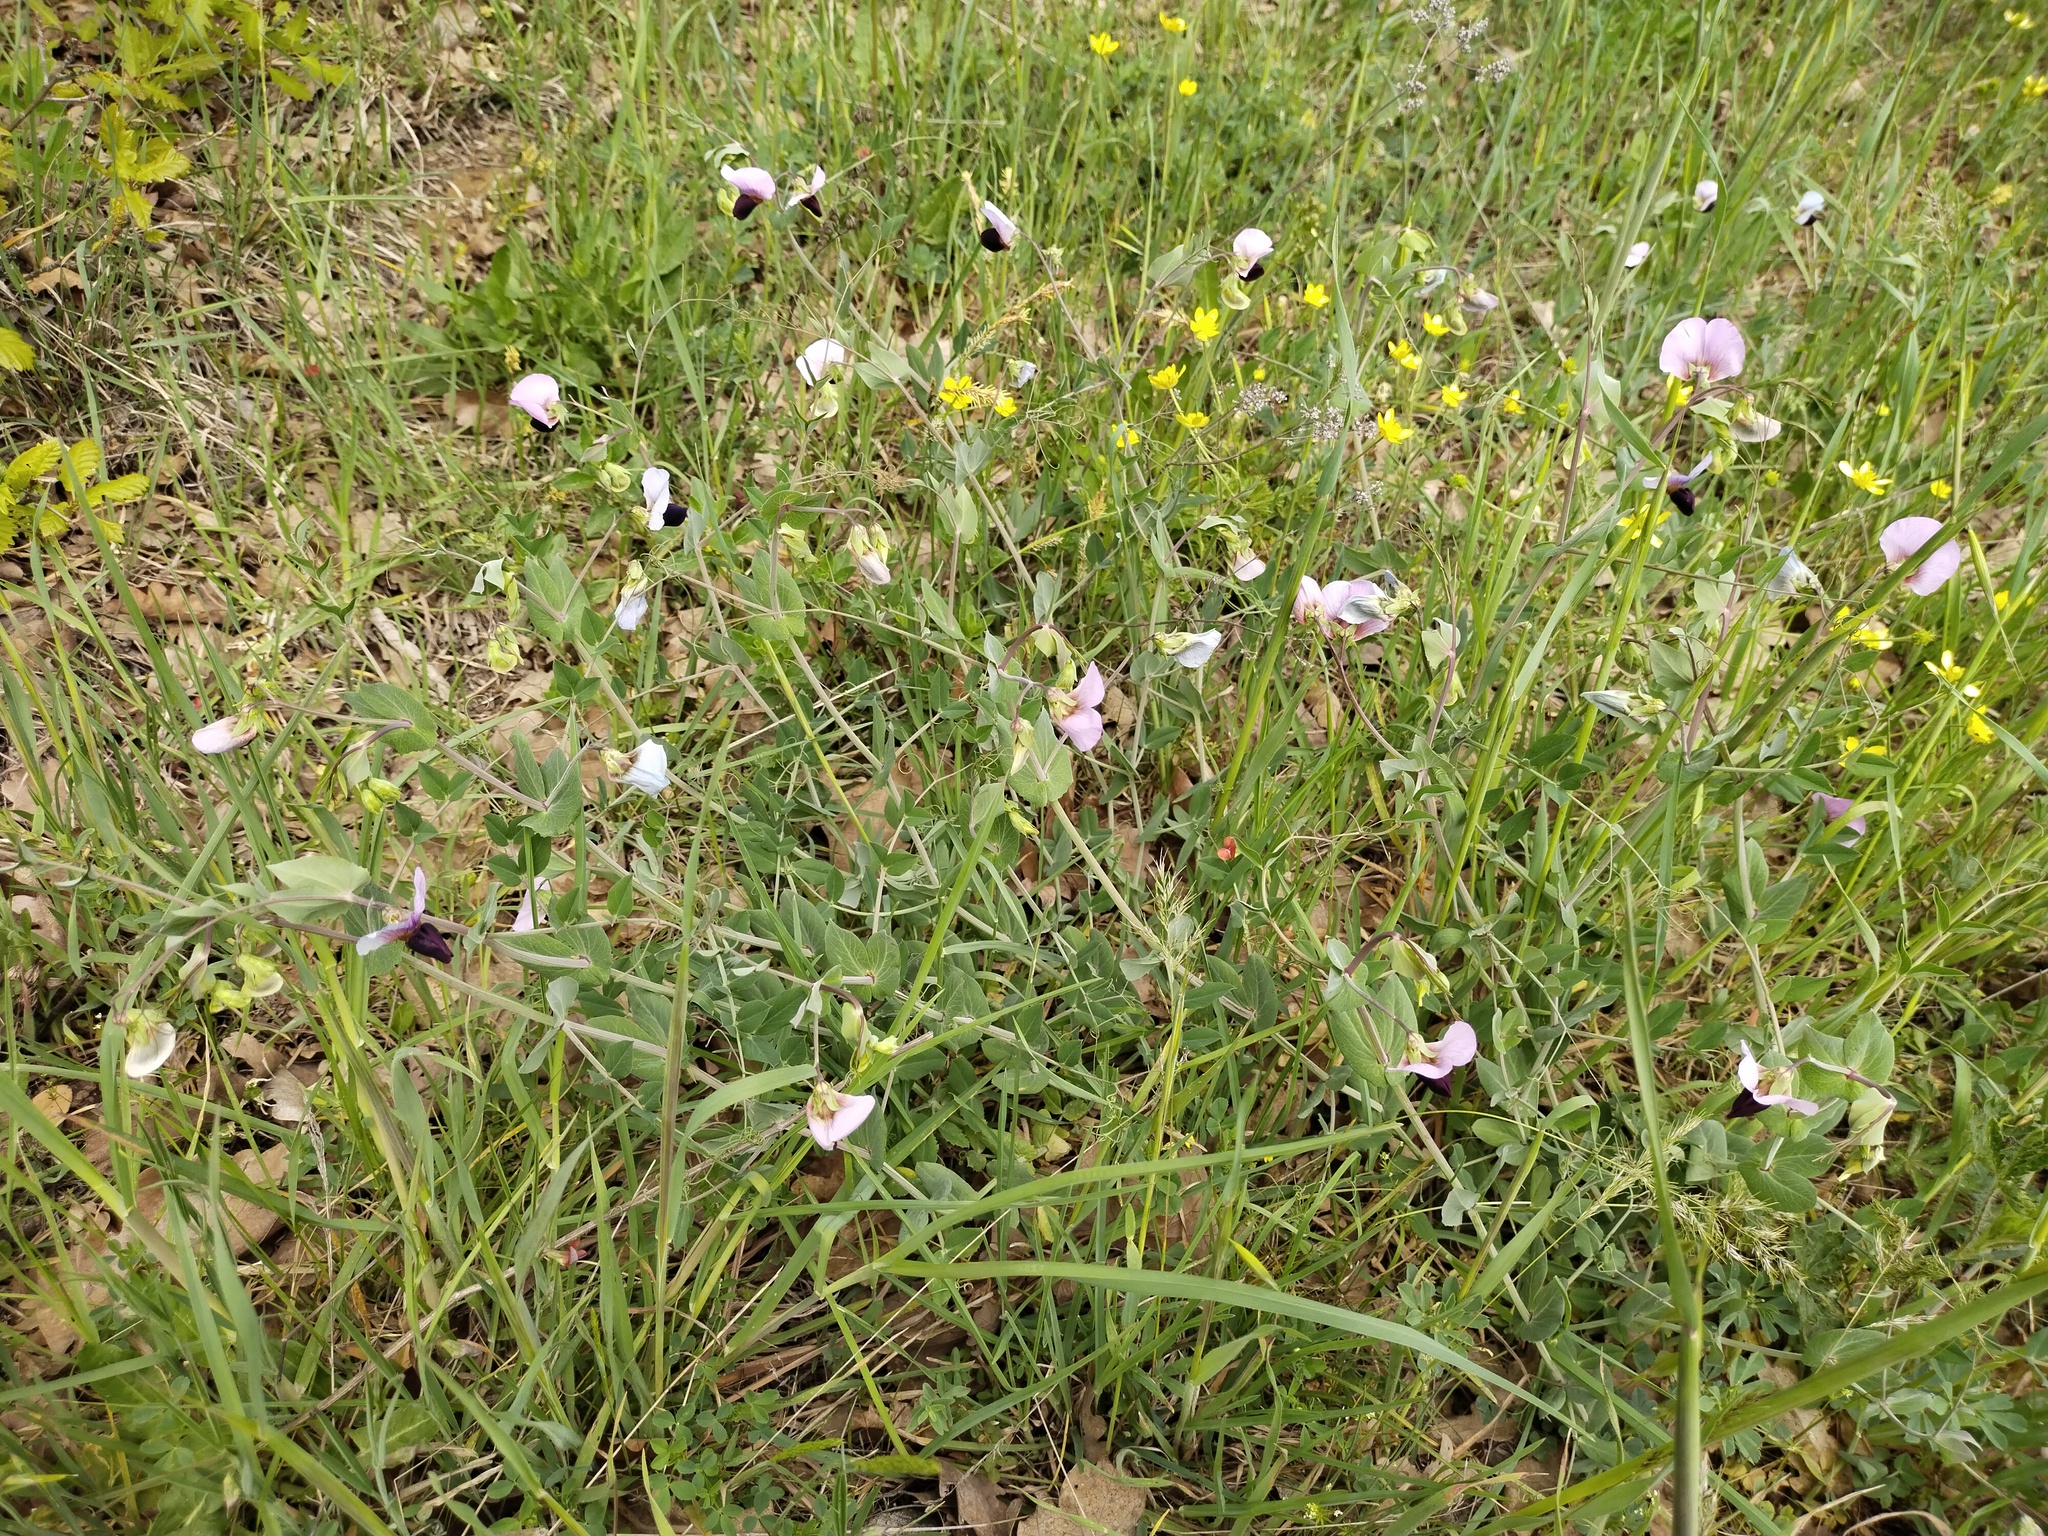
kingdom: Plantae
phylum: Tracheophyta
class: Magnoliopsida
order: Fabales
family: Fabaceae
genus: Lathyrus
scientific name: Lathyrus oleraceus
